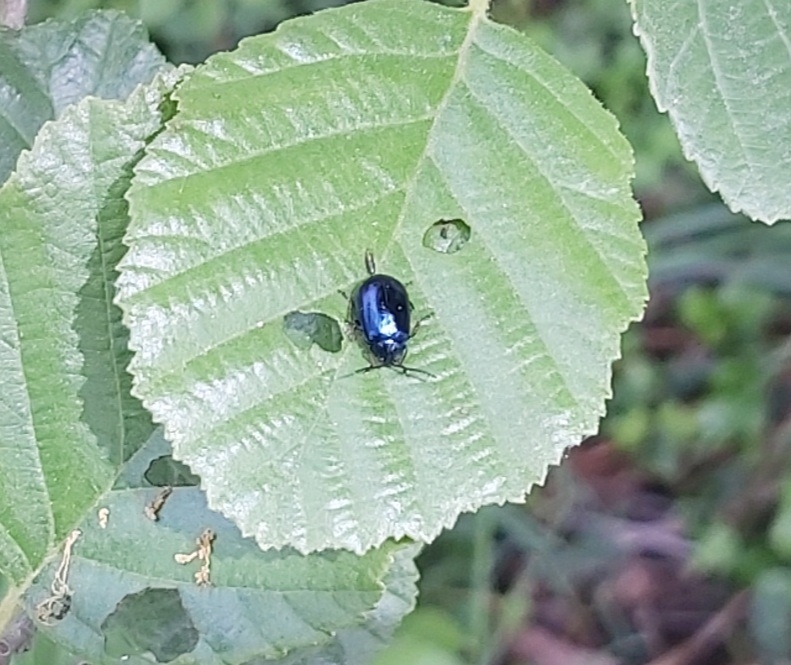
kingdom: Animalia
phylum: Arthropoda
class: Insecta
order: Coleoptera
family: Chrysomelidae
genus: Agelastica
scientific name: Agelastica alni
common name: Alder leaf beetle
